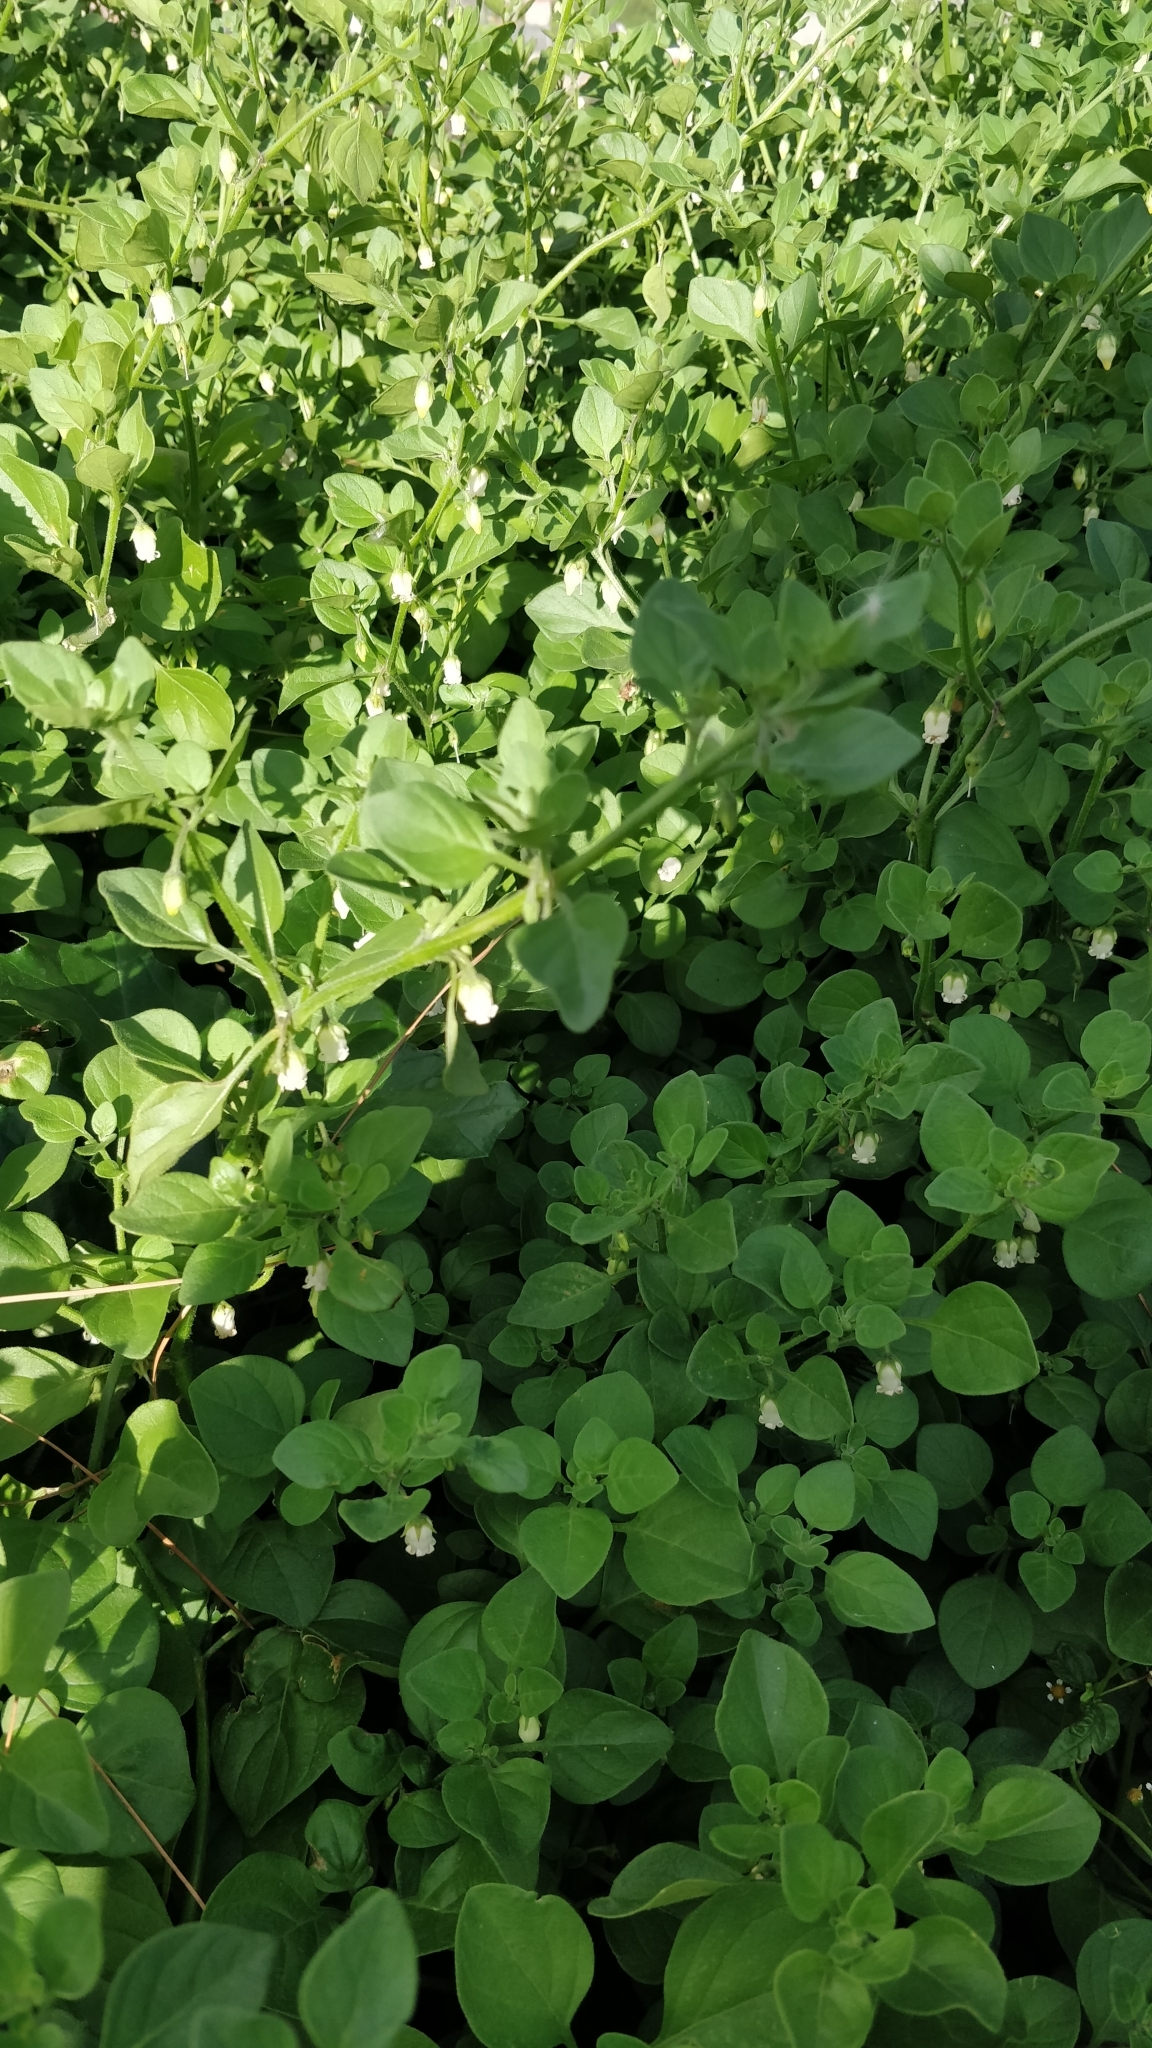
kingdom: Plantae
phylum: Tracheophyta
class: Magnoliopsida
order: Solanales
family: Solanaceae
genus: Salpichroa
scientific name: Salpichroa origanifolia
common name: Lily-of-the-valley-vine
